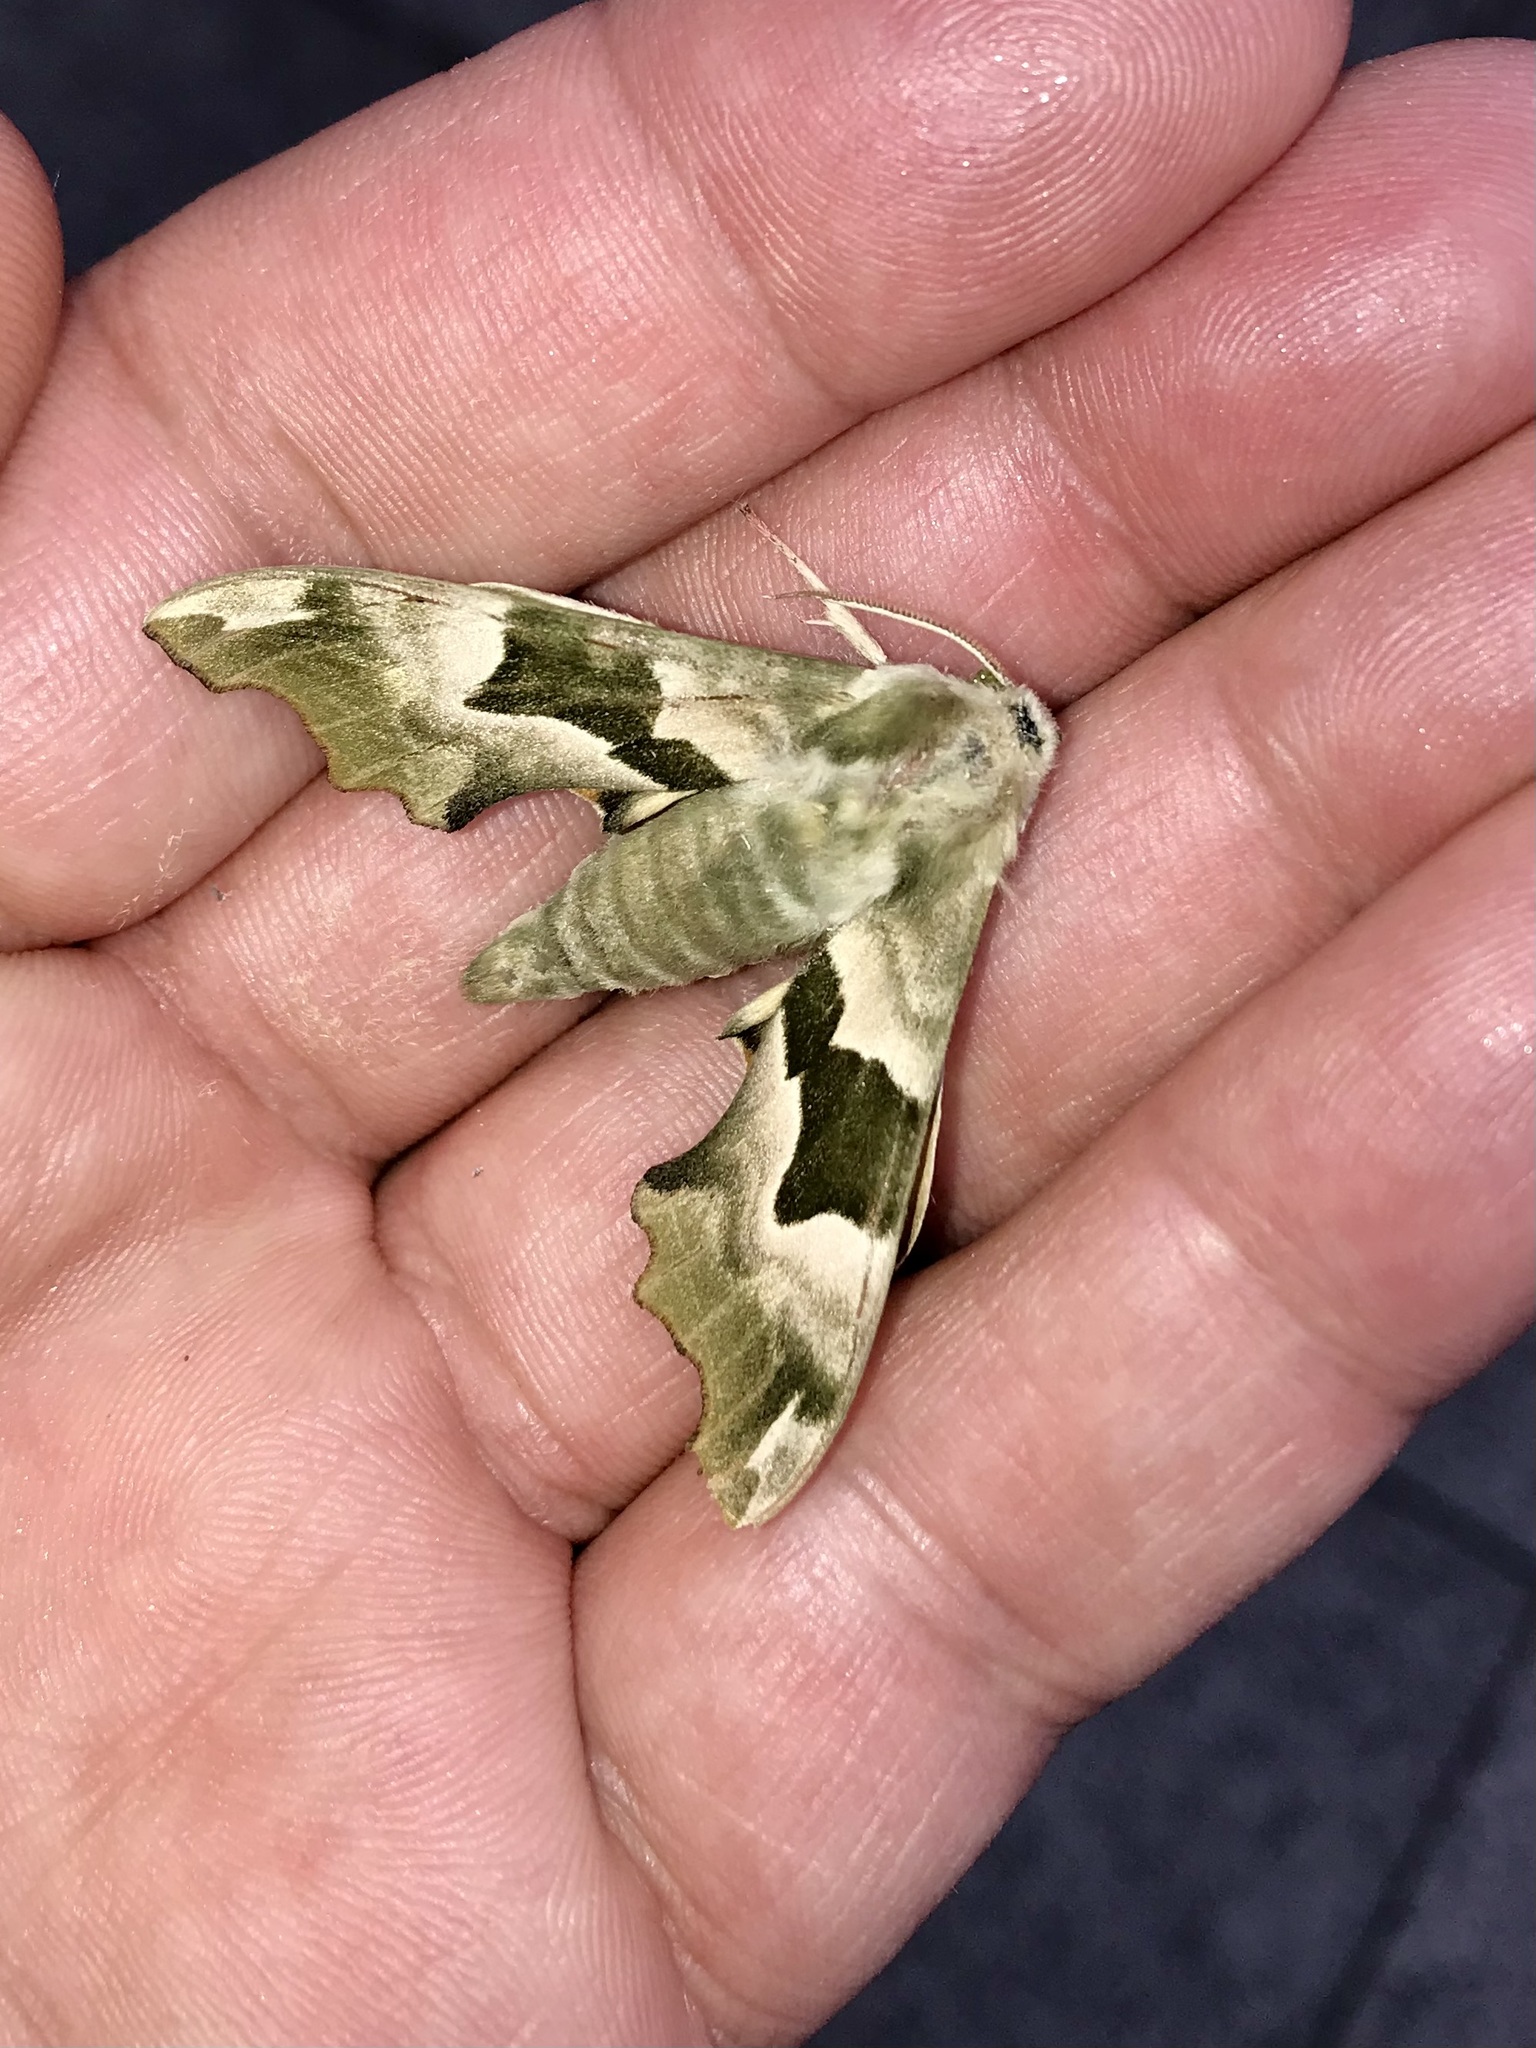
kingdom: Animalia
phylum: Arthropoda
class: Insecta
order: Lepidoptera
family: Sphingidae
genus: Mimas
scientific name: Mimas tiliae
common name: Lime hawk-moth
